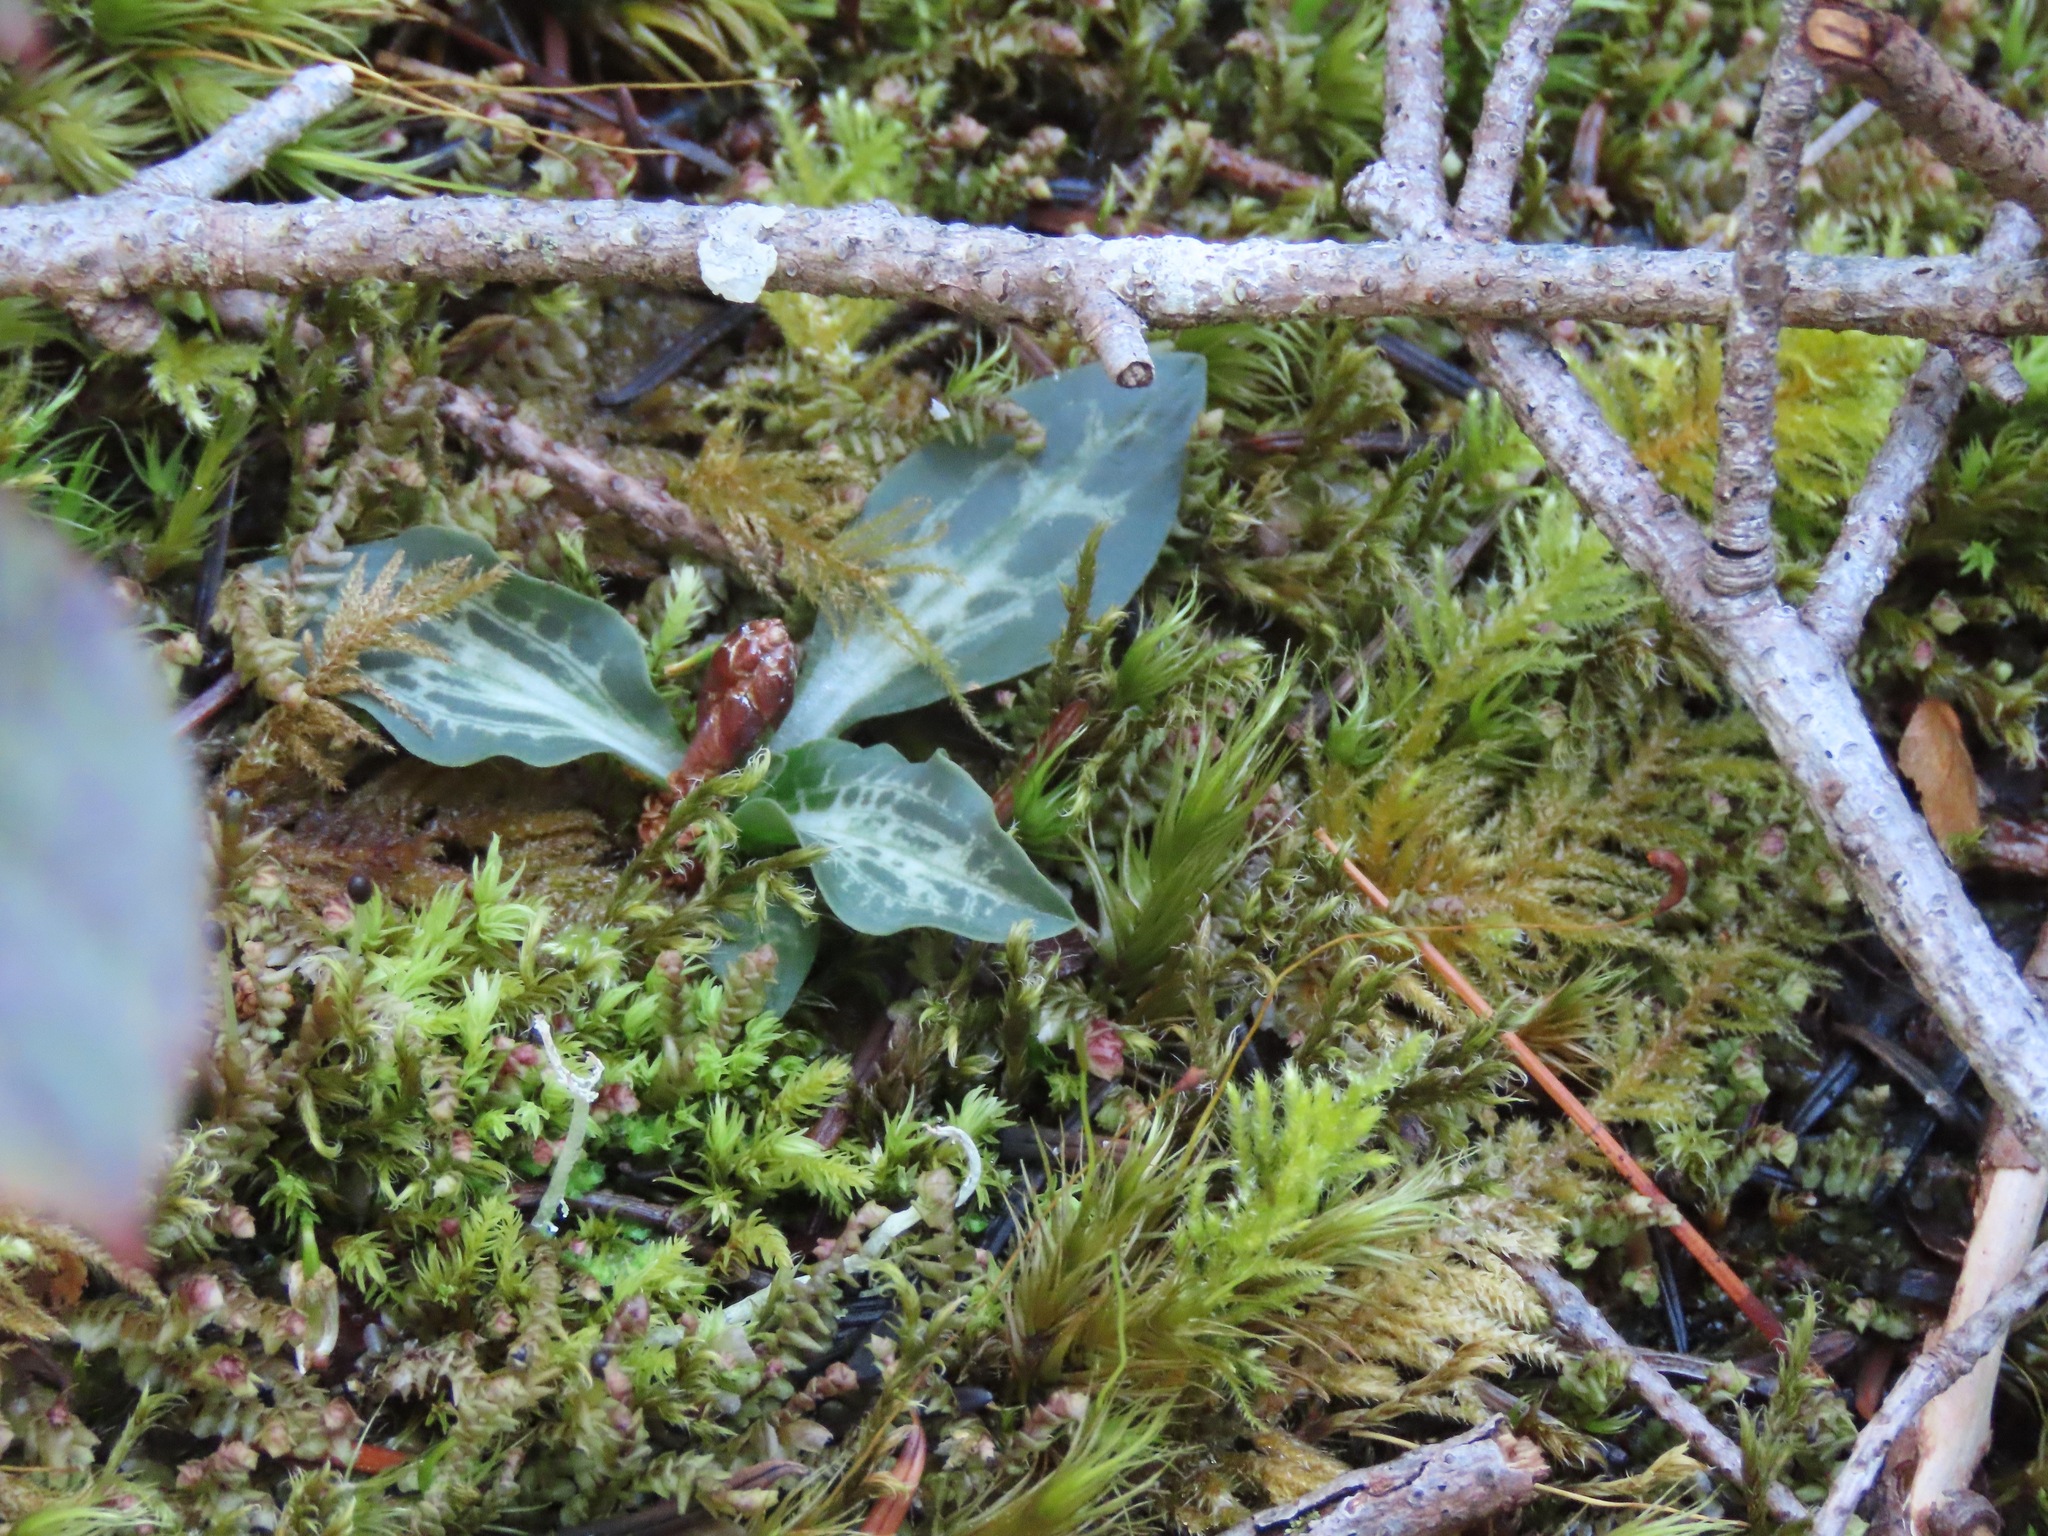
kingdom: Plantae
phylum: Tracheophyta
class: Liliopsida
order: Asparagales
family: Orchidaceae
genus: Goodyera
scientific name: Goodyera oblongifolia
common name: Giant rattlesnake-plantain
